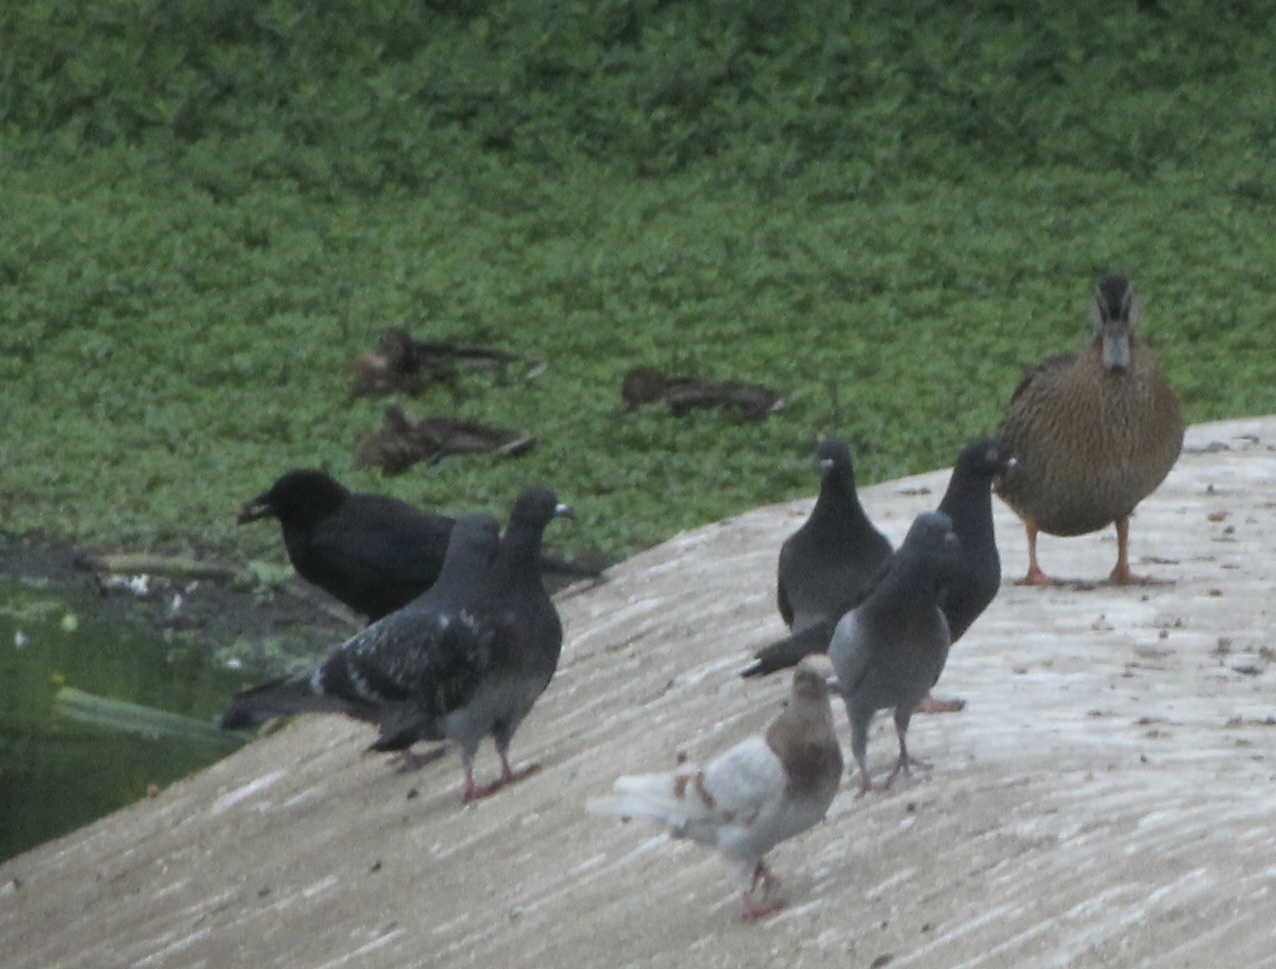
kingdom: Animalia
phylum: Chordata
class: Aves
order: Anseriformes
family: Anatidae
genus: Anas
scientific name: Anas platyrhynchos
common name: Mallard
